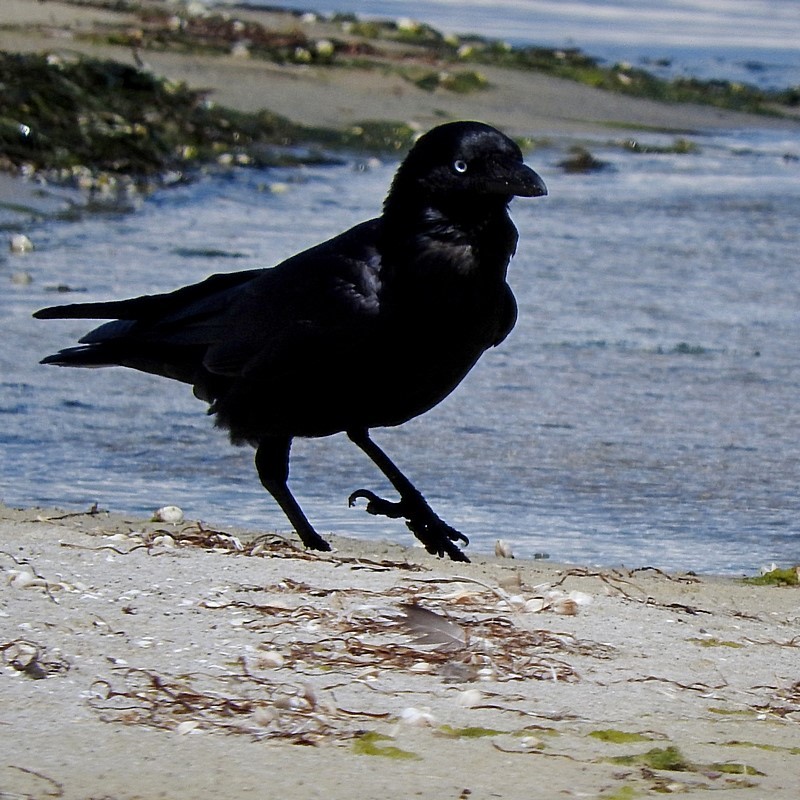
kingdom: Animalia
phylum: Chordata
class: Aves
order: Passeriformes
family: Corvidae
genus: Corvus
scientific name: Corvus coronoides
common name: Australian raven
